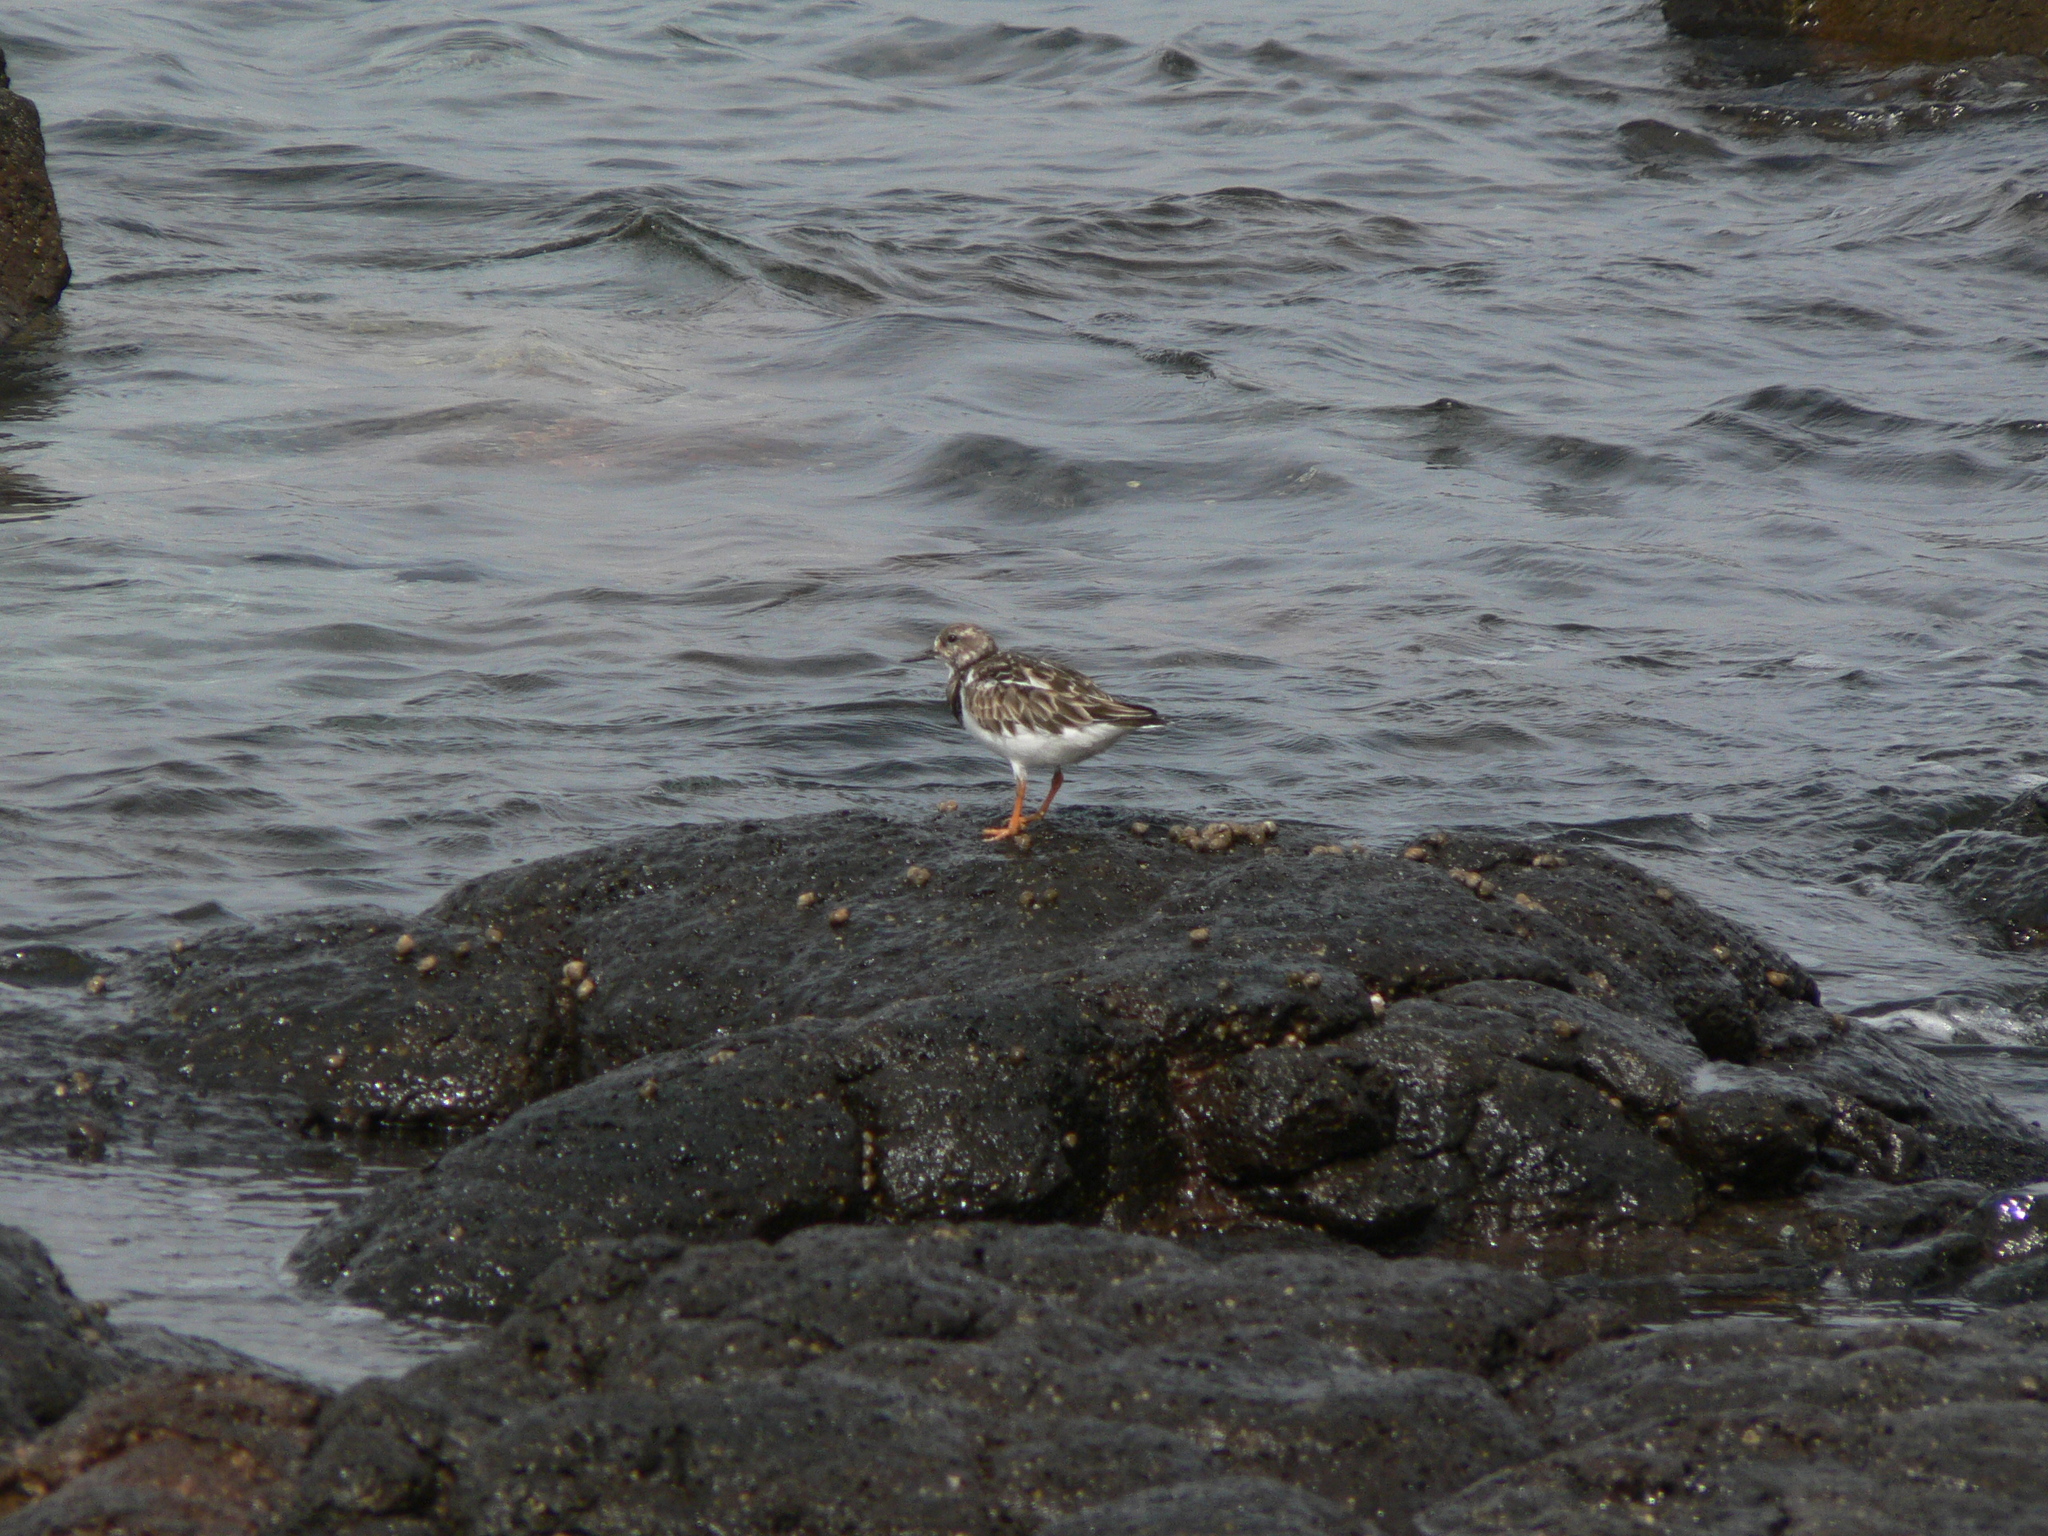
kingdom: Animalia
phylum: Chordata
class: Aves
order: Charadriiformes
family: Scolopacidae
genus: Arenaria
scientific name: Arenaria interpres
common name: Ruddy turnstone
